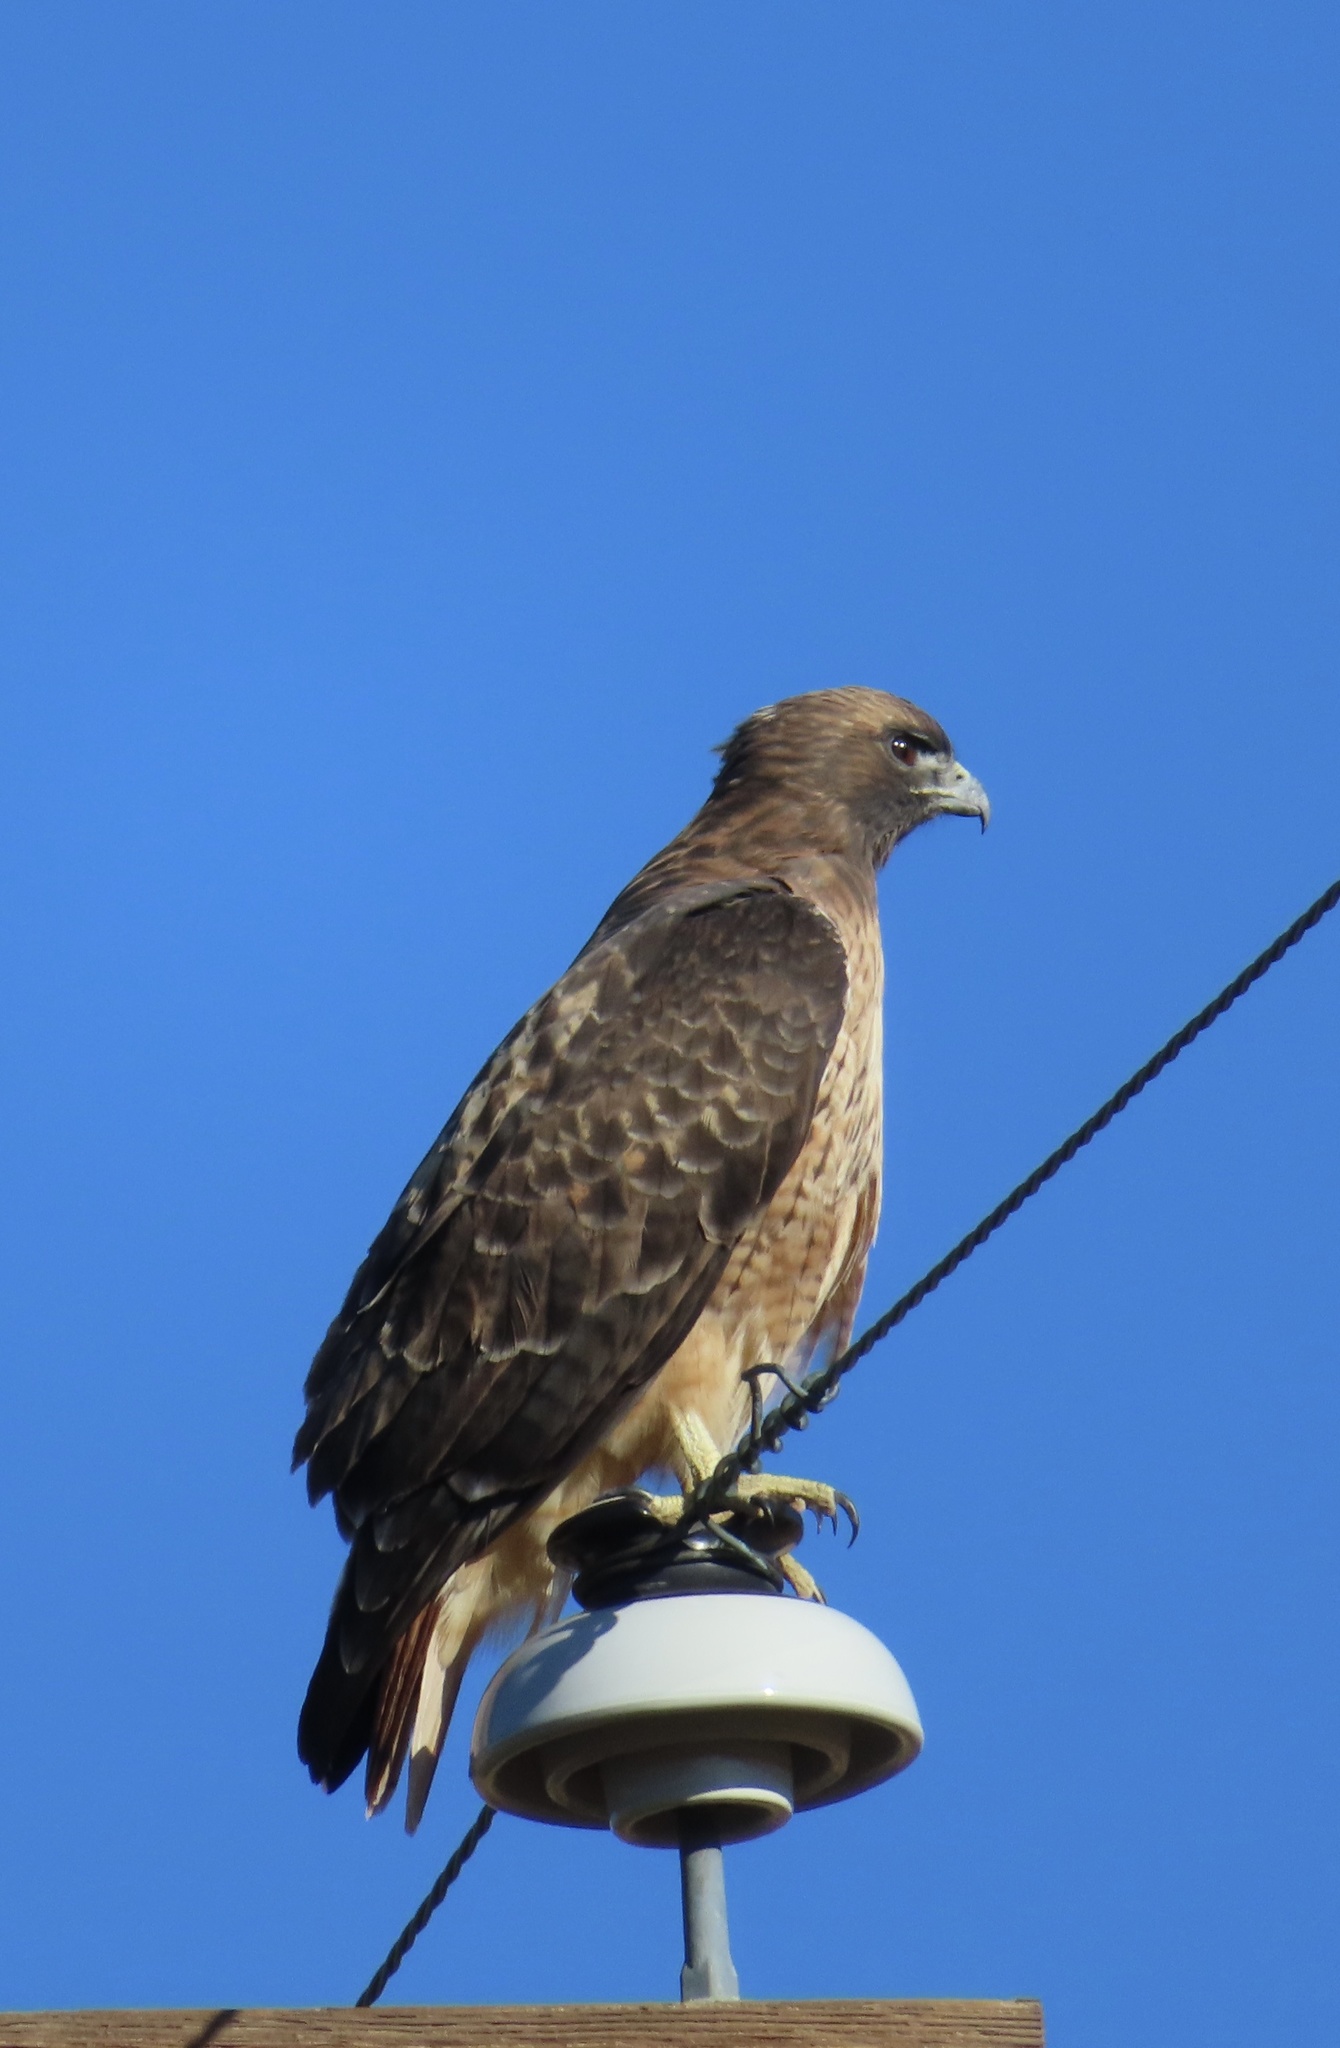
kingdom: Animalia
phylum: Chordata
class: Aves
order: Accipitriformes
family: Accipitridae
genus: Buteo
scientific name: Buteo jamaicensis
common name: Red-tailed hawk
